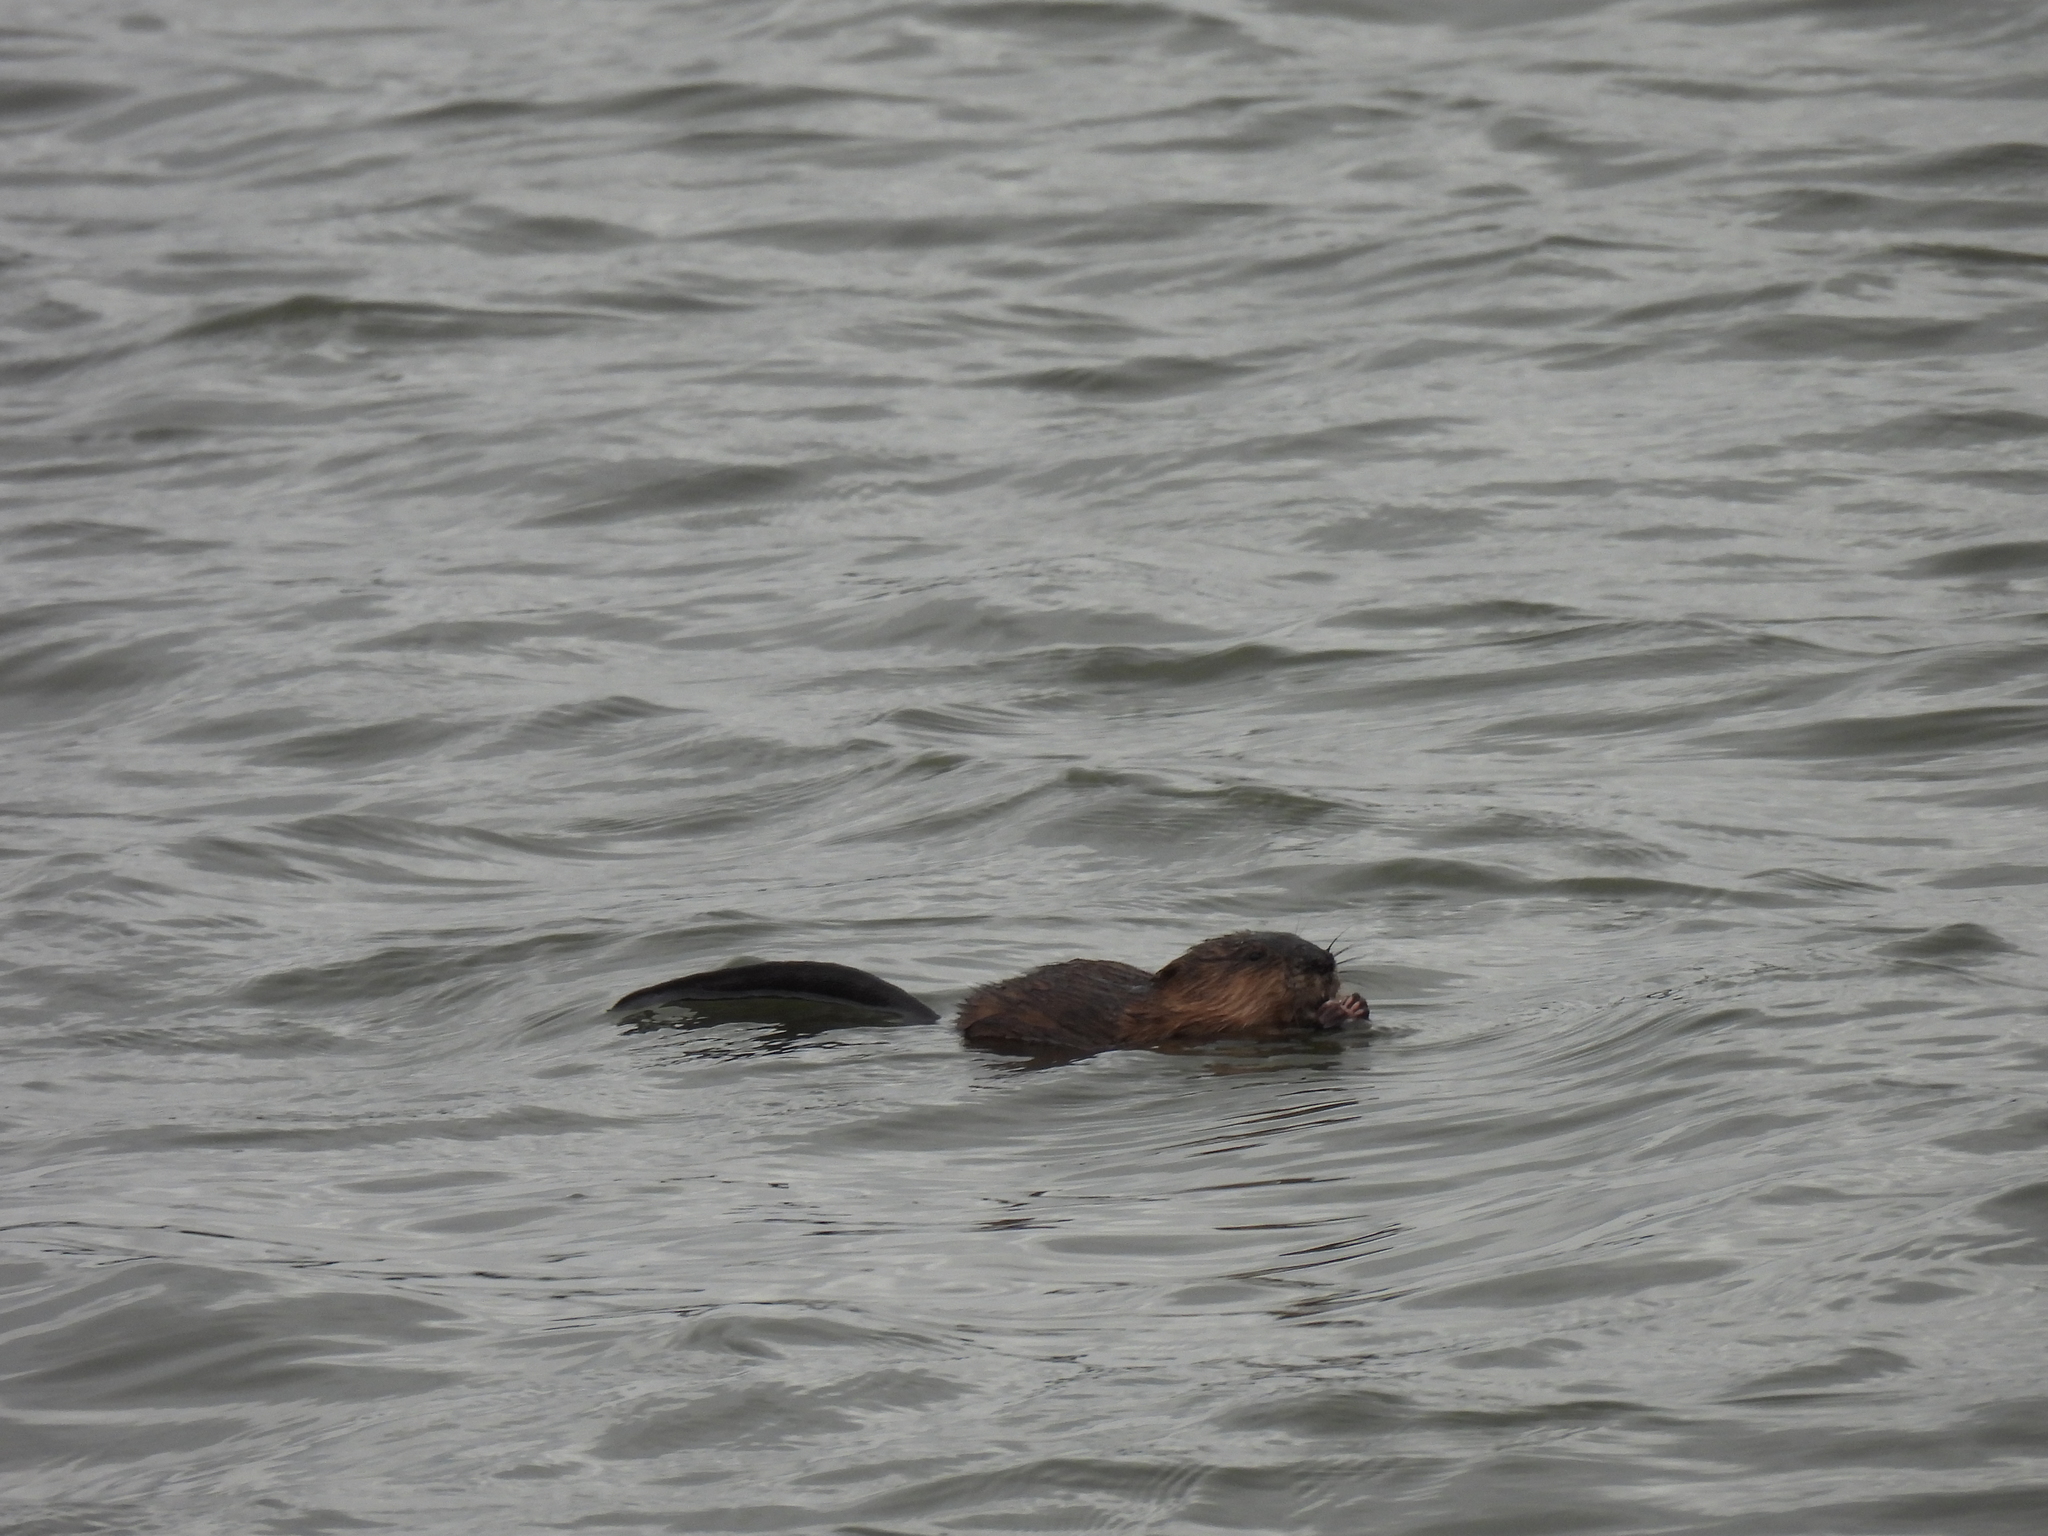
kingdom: Animalia
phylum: Chordata
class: Mammalia
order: Rodentia
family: Cricetidae
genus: Ondatra
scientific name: Ondatra zibethicus
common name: Muskrat
